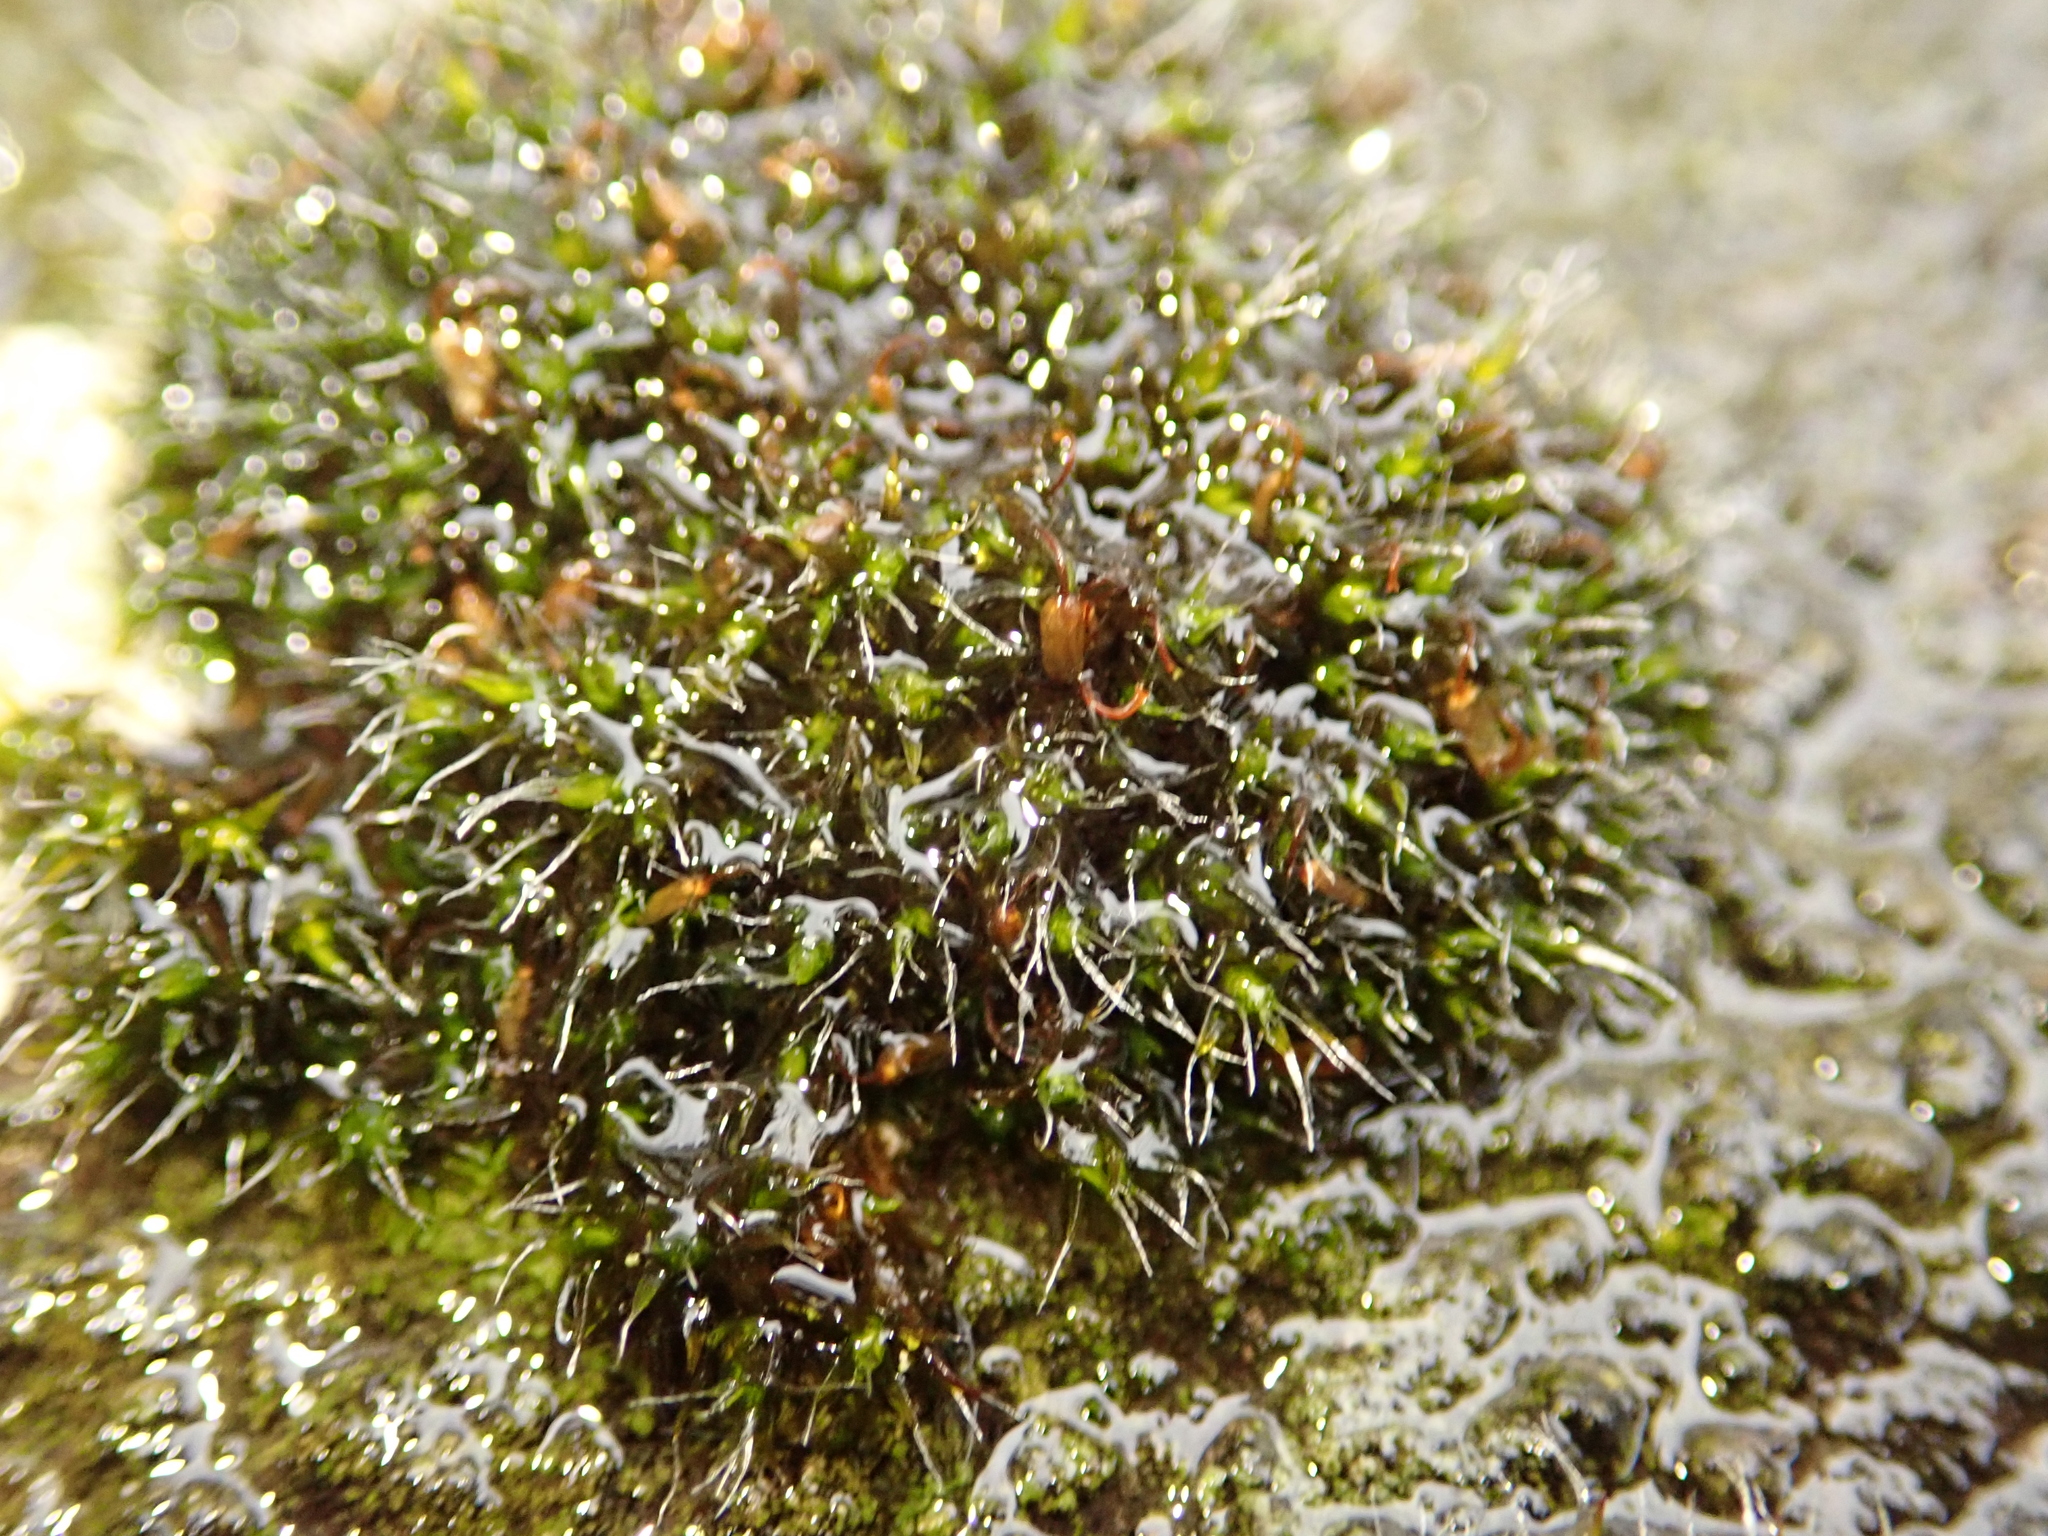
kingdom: Plantae
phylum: Bryophyta
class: Bryopsida
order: Grimmiales
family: Grimmiaceae
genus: Grimmia
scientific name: Grimmia pulvinata
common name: Grey-cushioned grimmia
